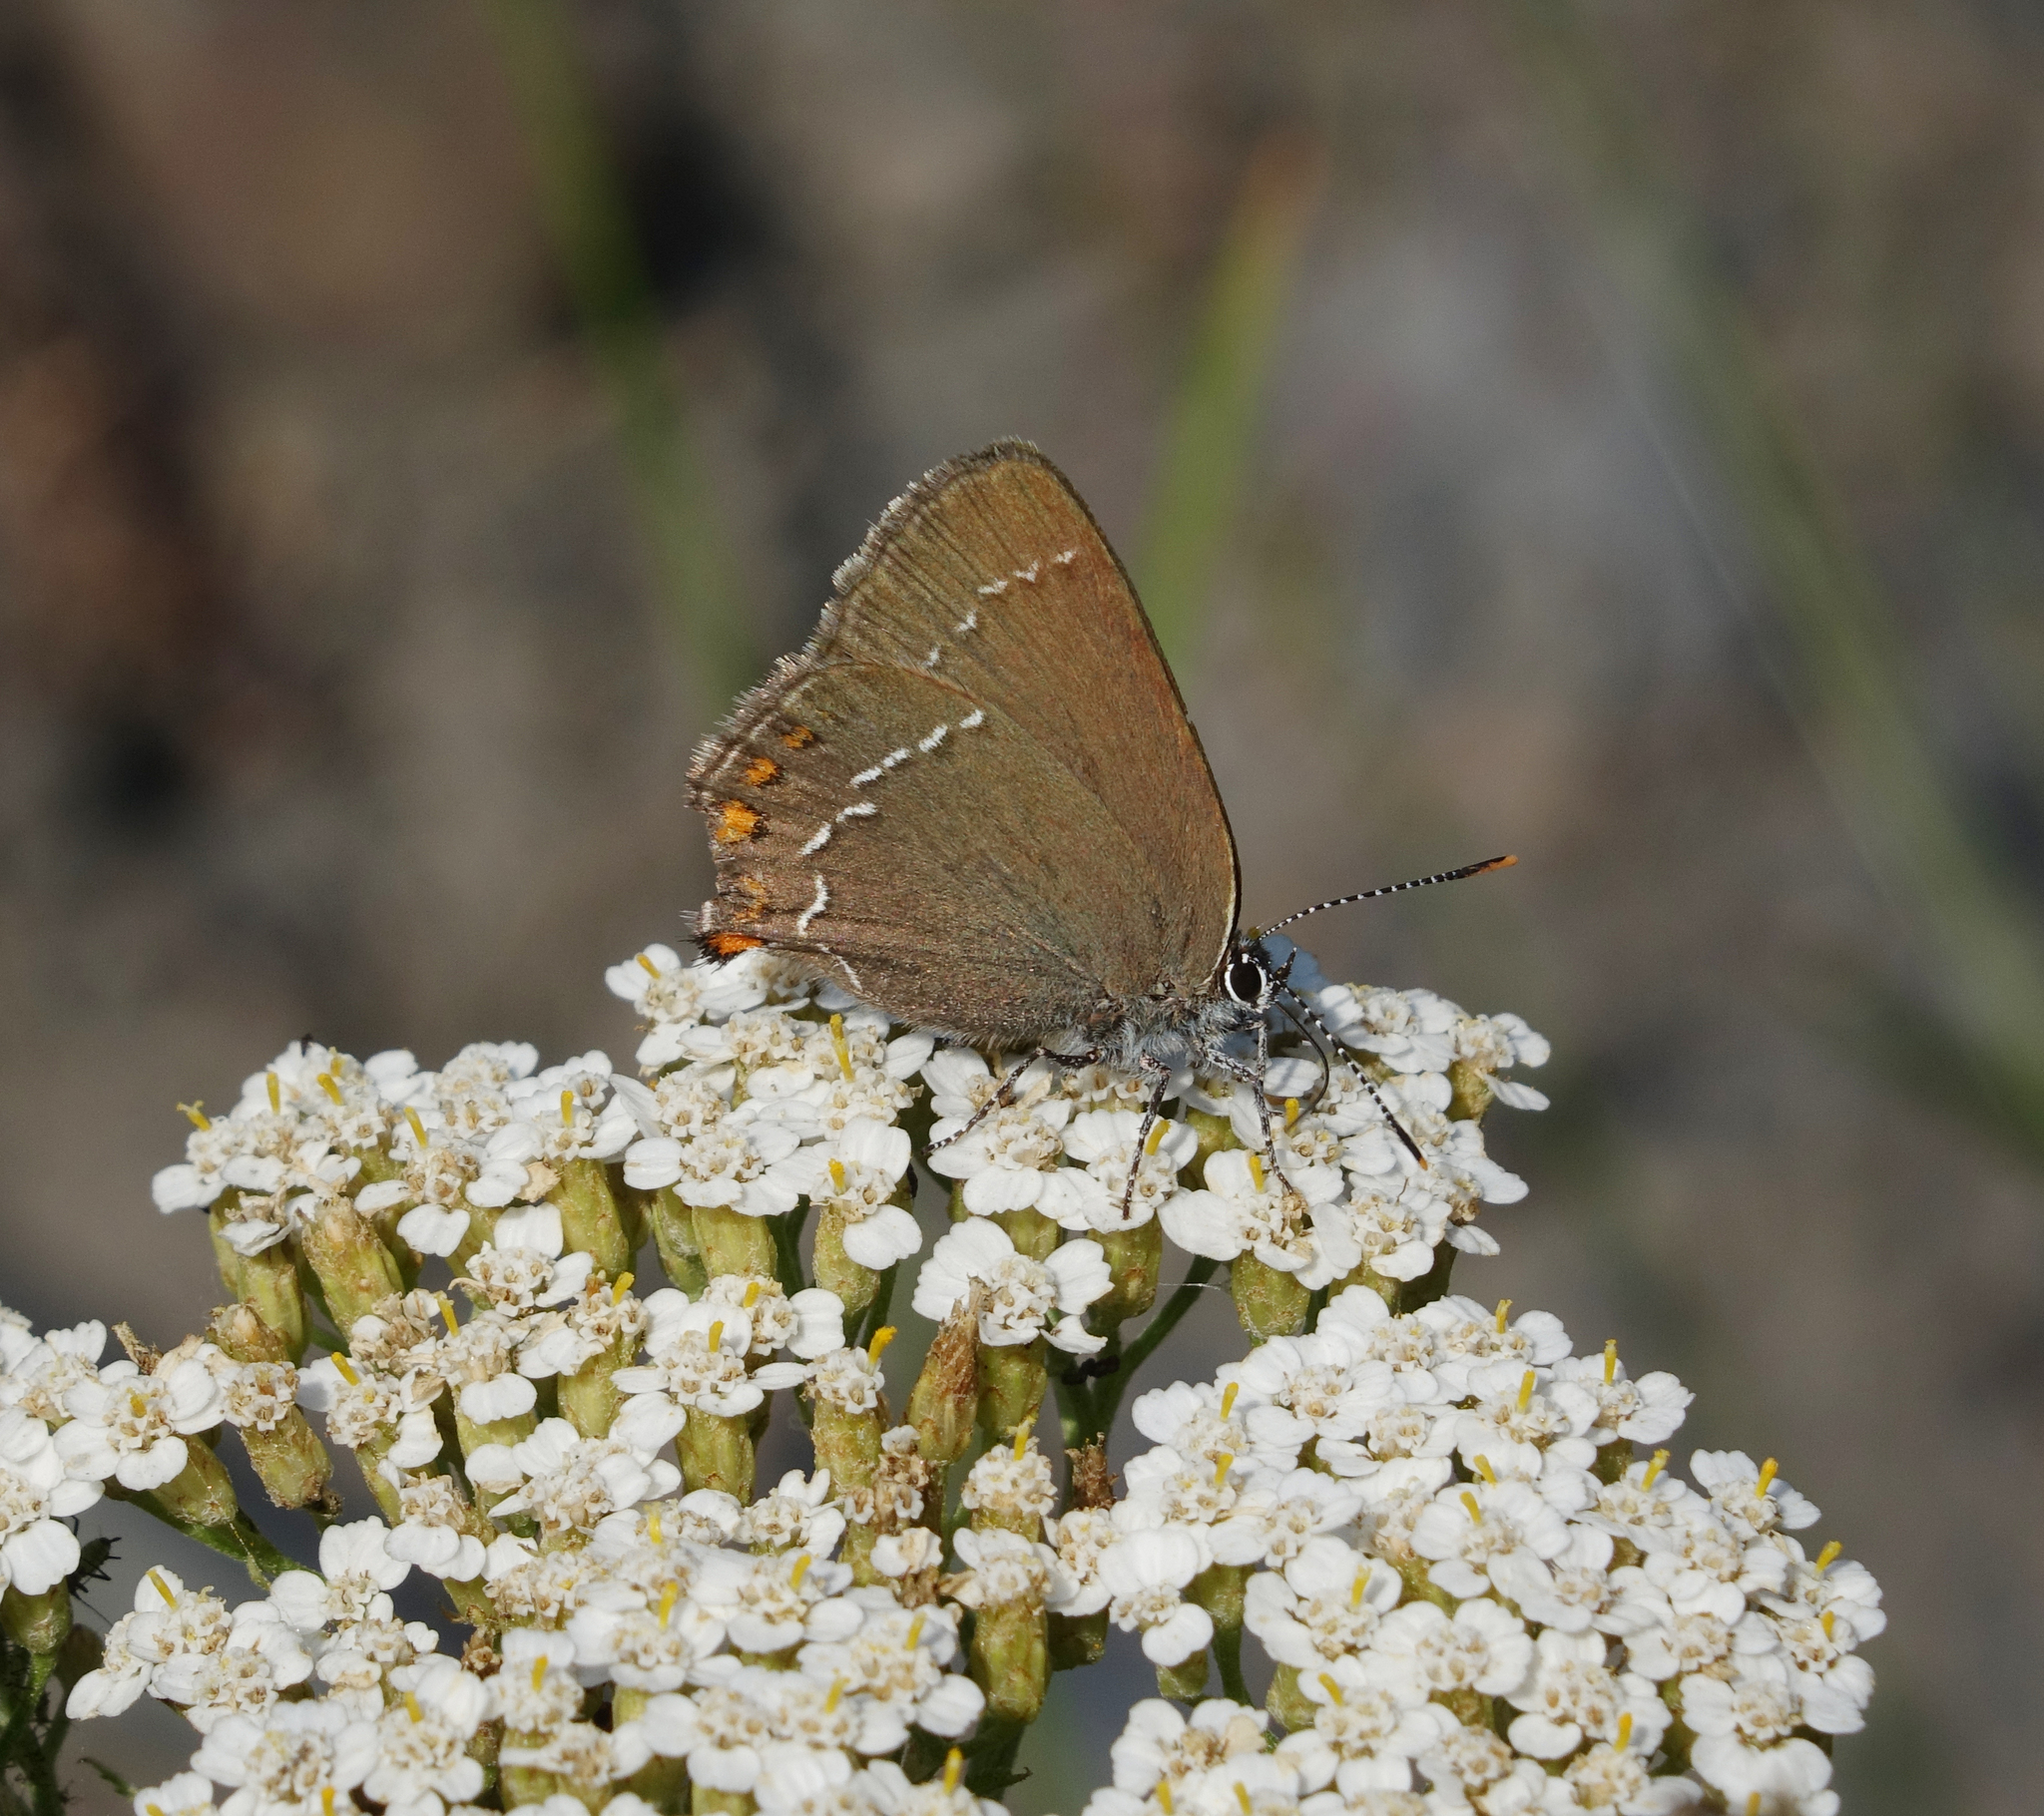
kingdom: Plantae
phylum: Tracheophyta
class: Magnoliopsida
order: Asterales
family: Asteraceae
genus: Achillea
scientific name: Achillea millefolium
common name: Yarrow
